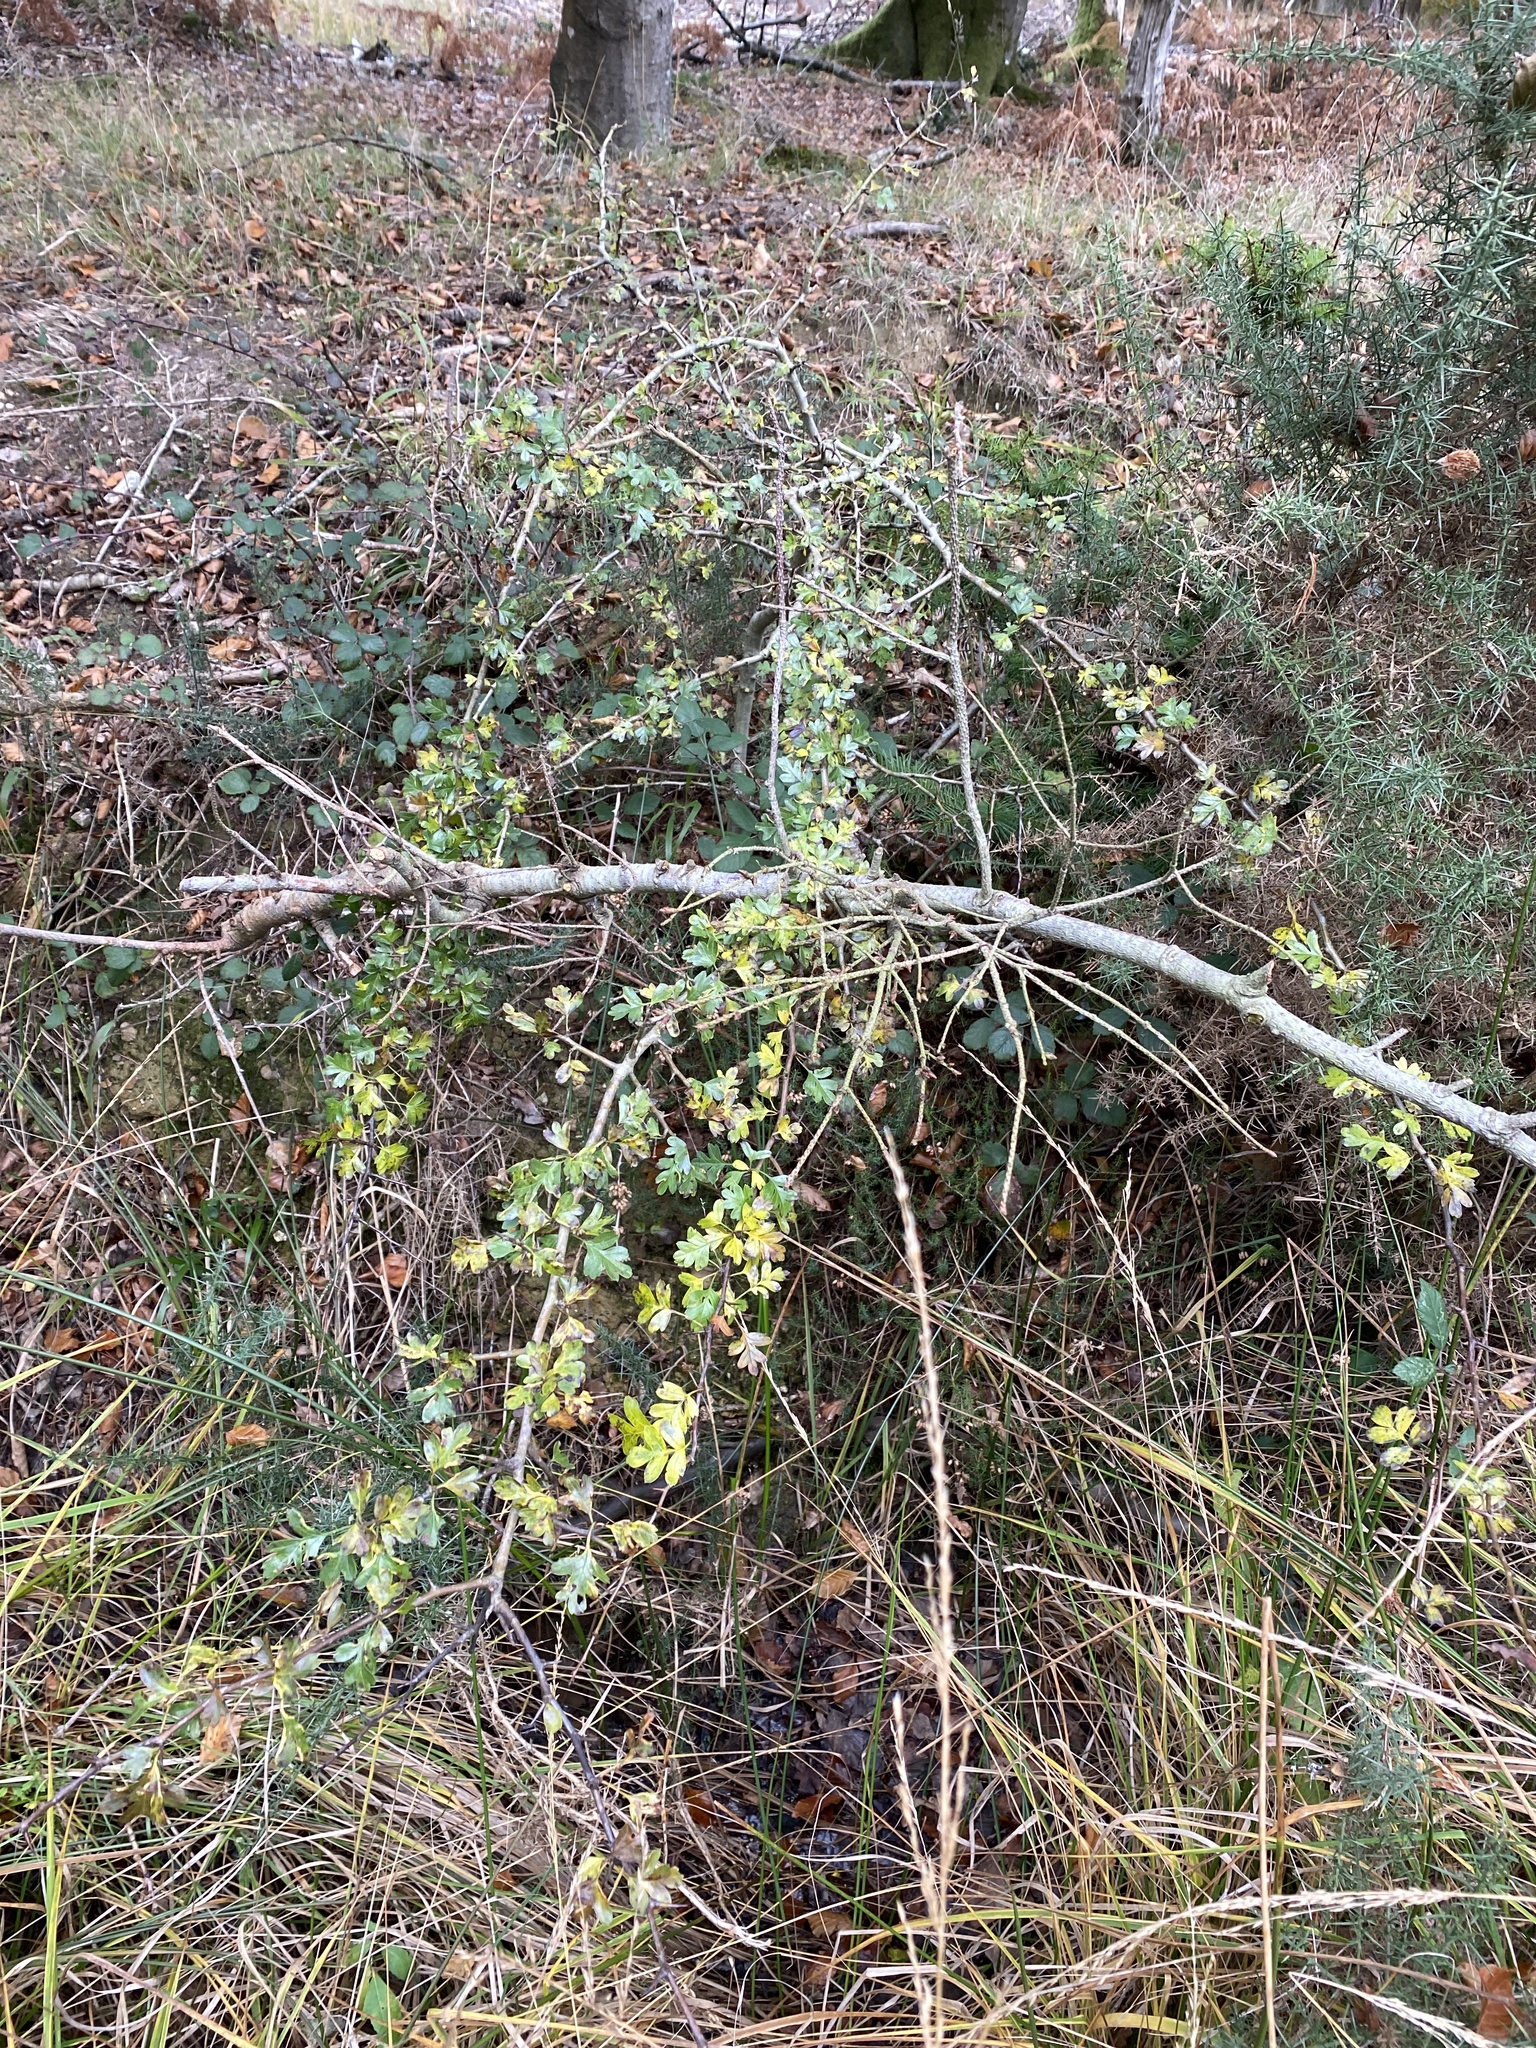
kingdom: Plantae
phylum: Tracheophyta
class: Magnoliopsida
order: Rosales
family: Rosaceae
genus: Crataegus
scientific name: Crataegus monogyna
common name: Hawthorn
